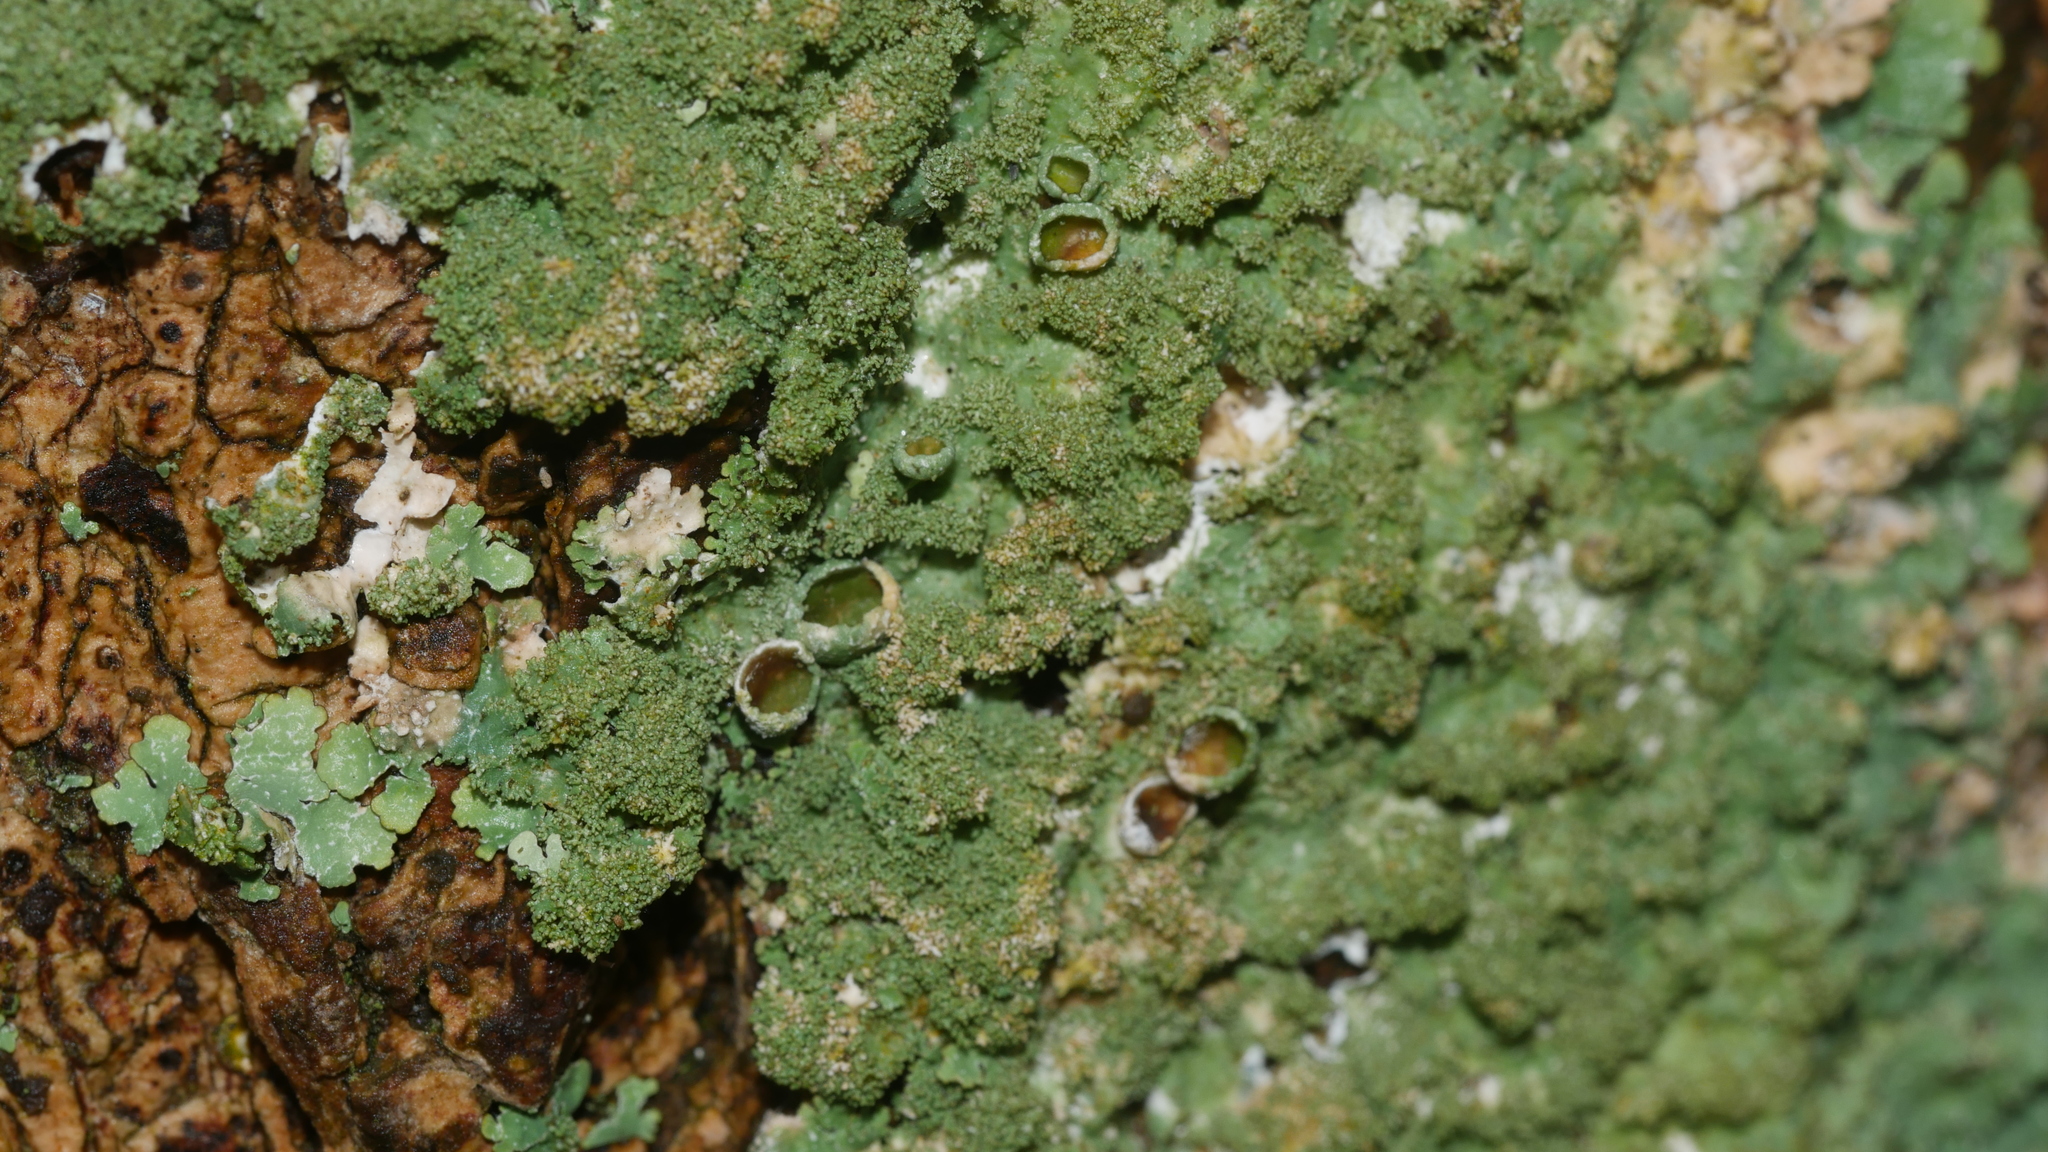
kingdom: Fungi
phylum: Ascomycota
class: Lecanoromycetes
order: Lecanorales
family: Parmeliaceae
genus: Punctelia
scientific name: Punctelia rudecta
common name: Rough speckled shield lichen
